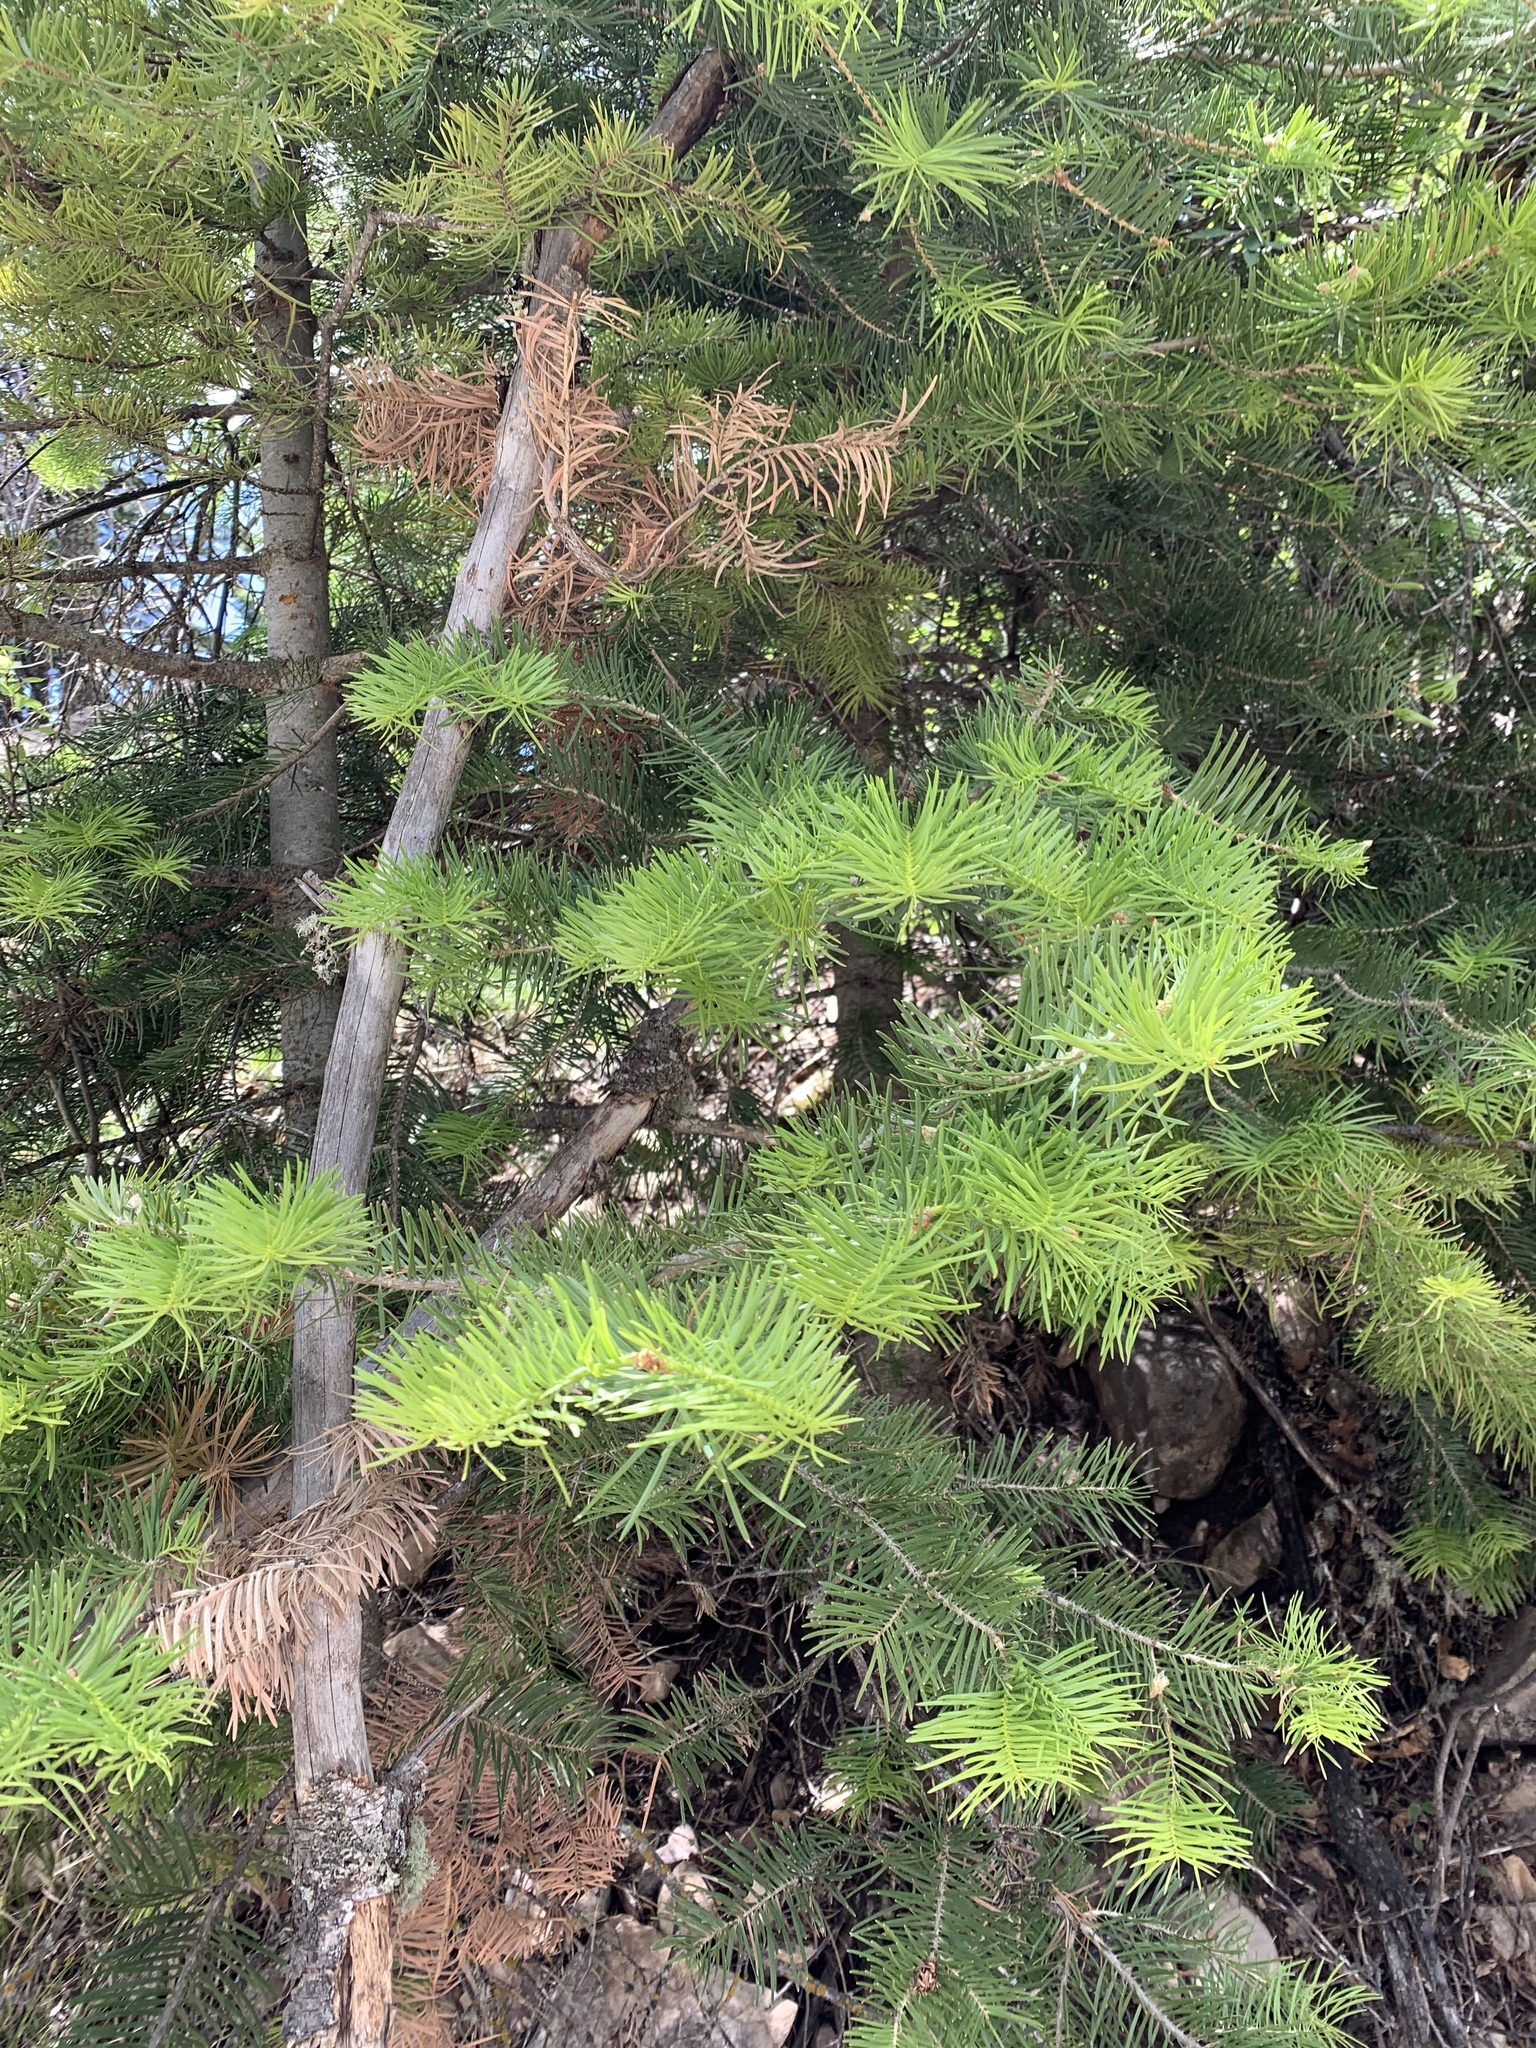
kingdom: Plantae
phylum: Tracheophyta
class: Pinopsida
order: Pinales
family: Pinaceae
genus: Abies
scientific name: Abies concolor
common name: Colorado fir
